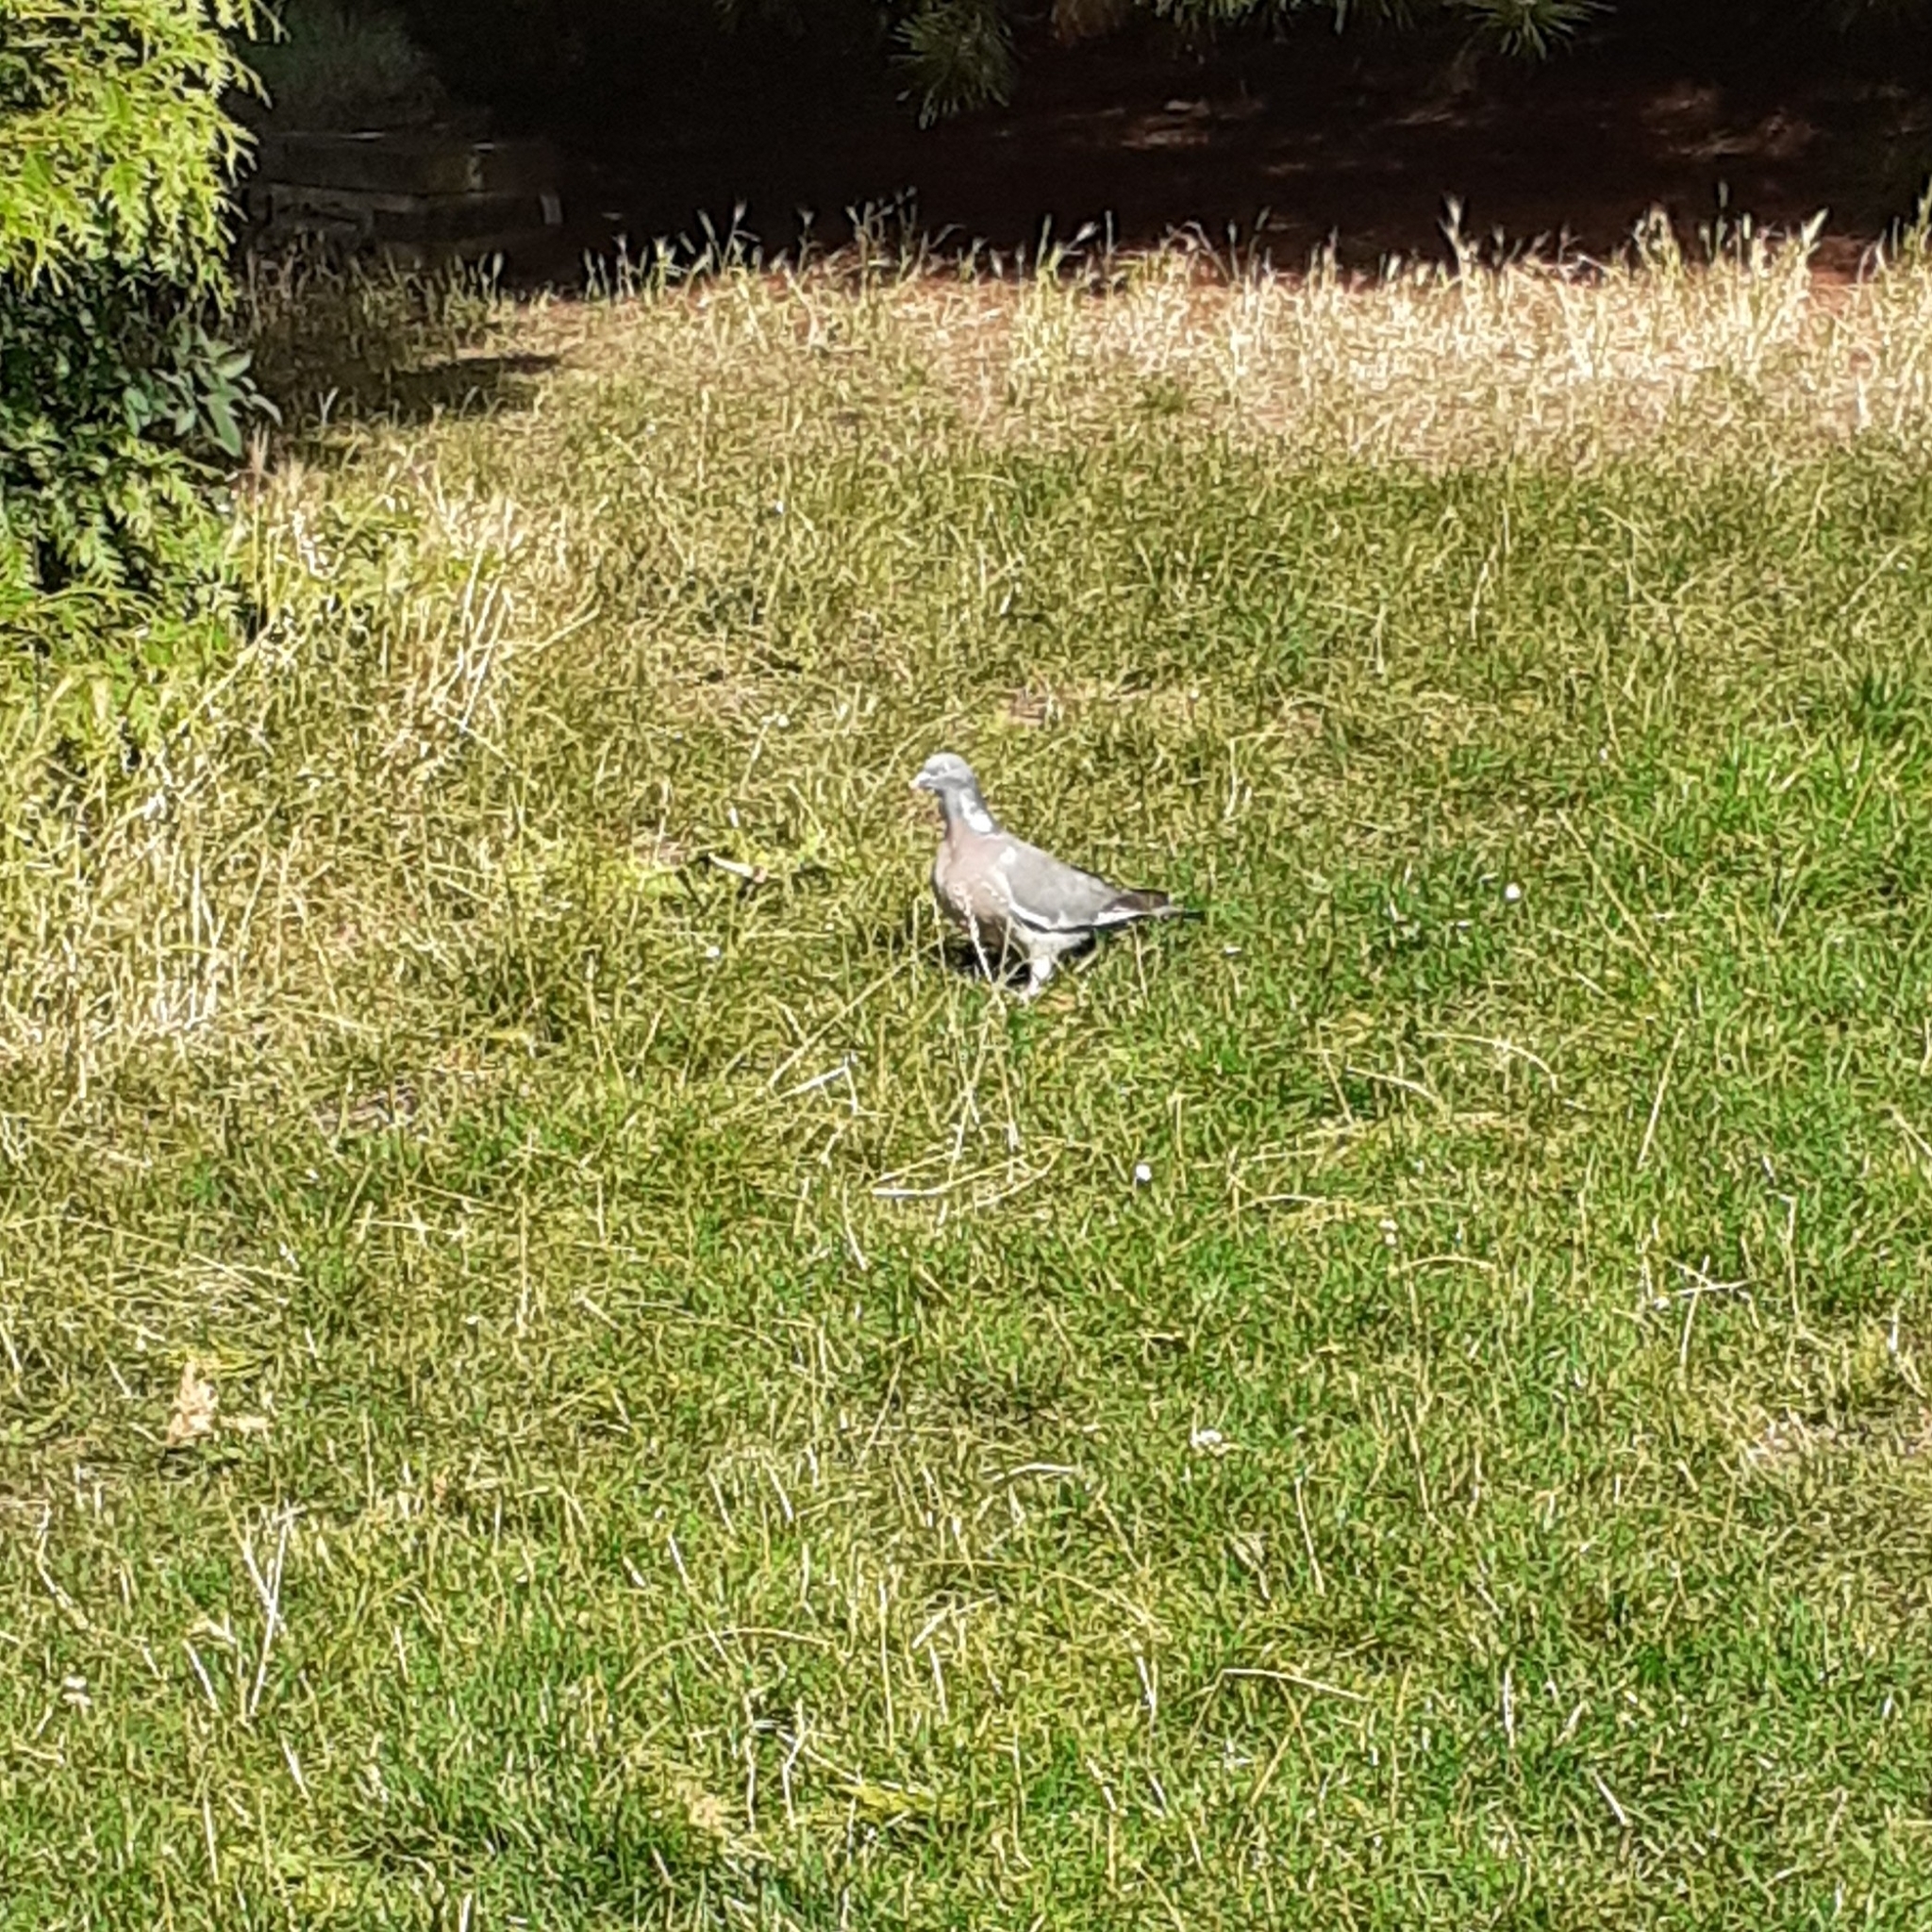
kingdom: Animalia
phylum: Chordata
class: Aves
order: Columbiformes
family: Columbidae
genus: Columba
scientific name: Columba palumbus
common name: Common wood pigeon
